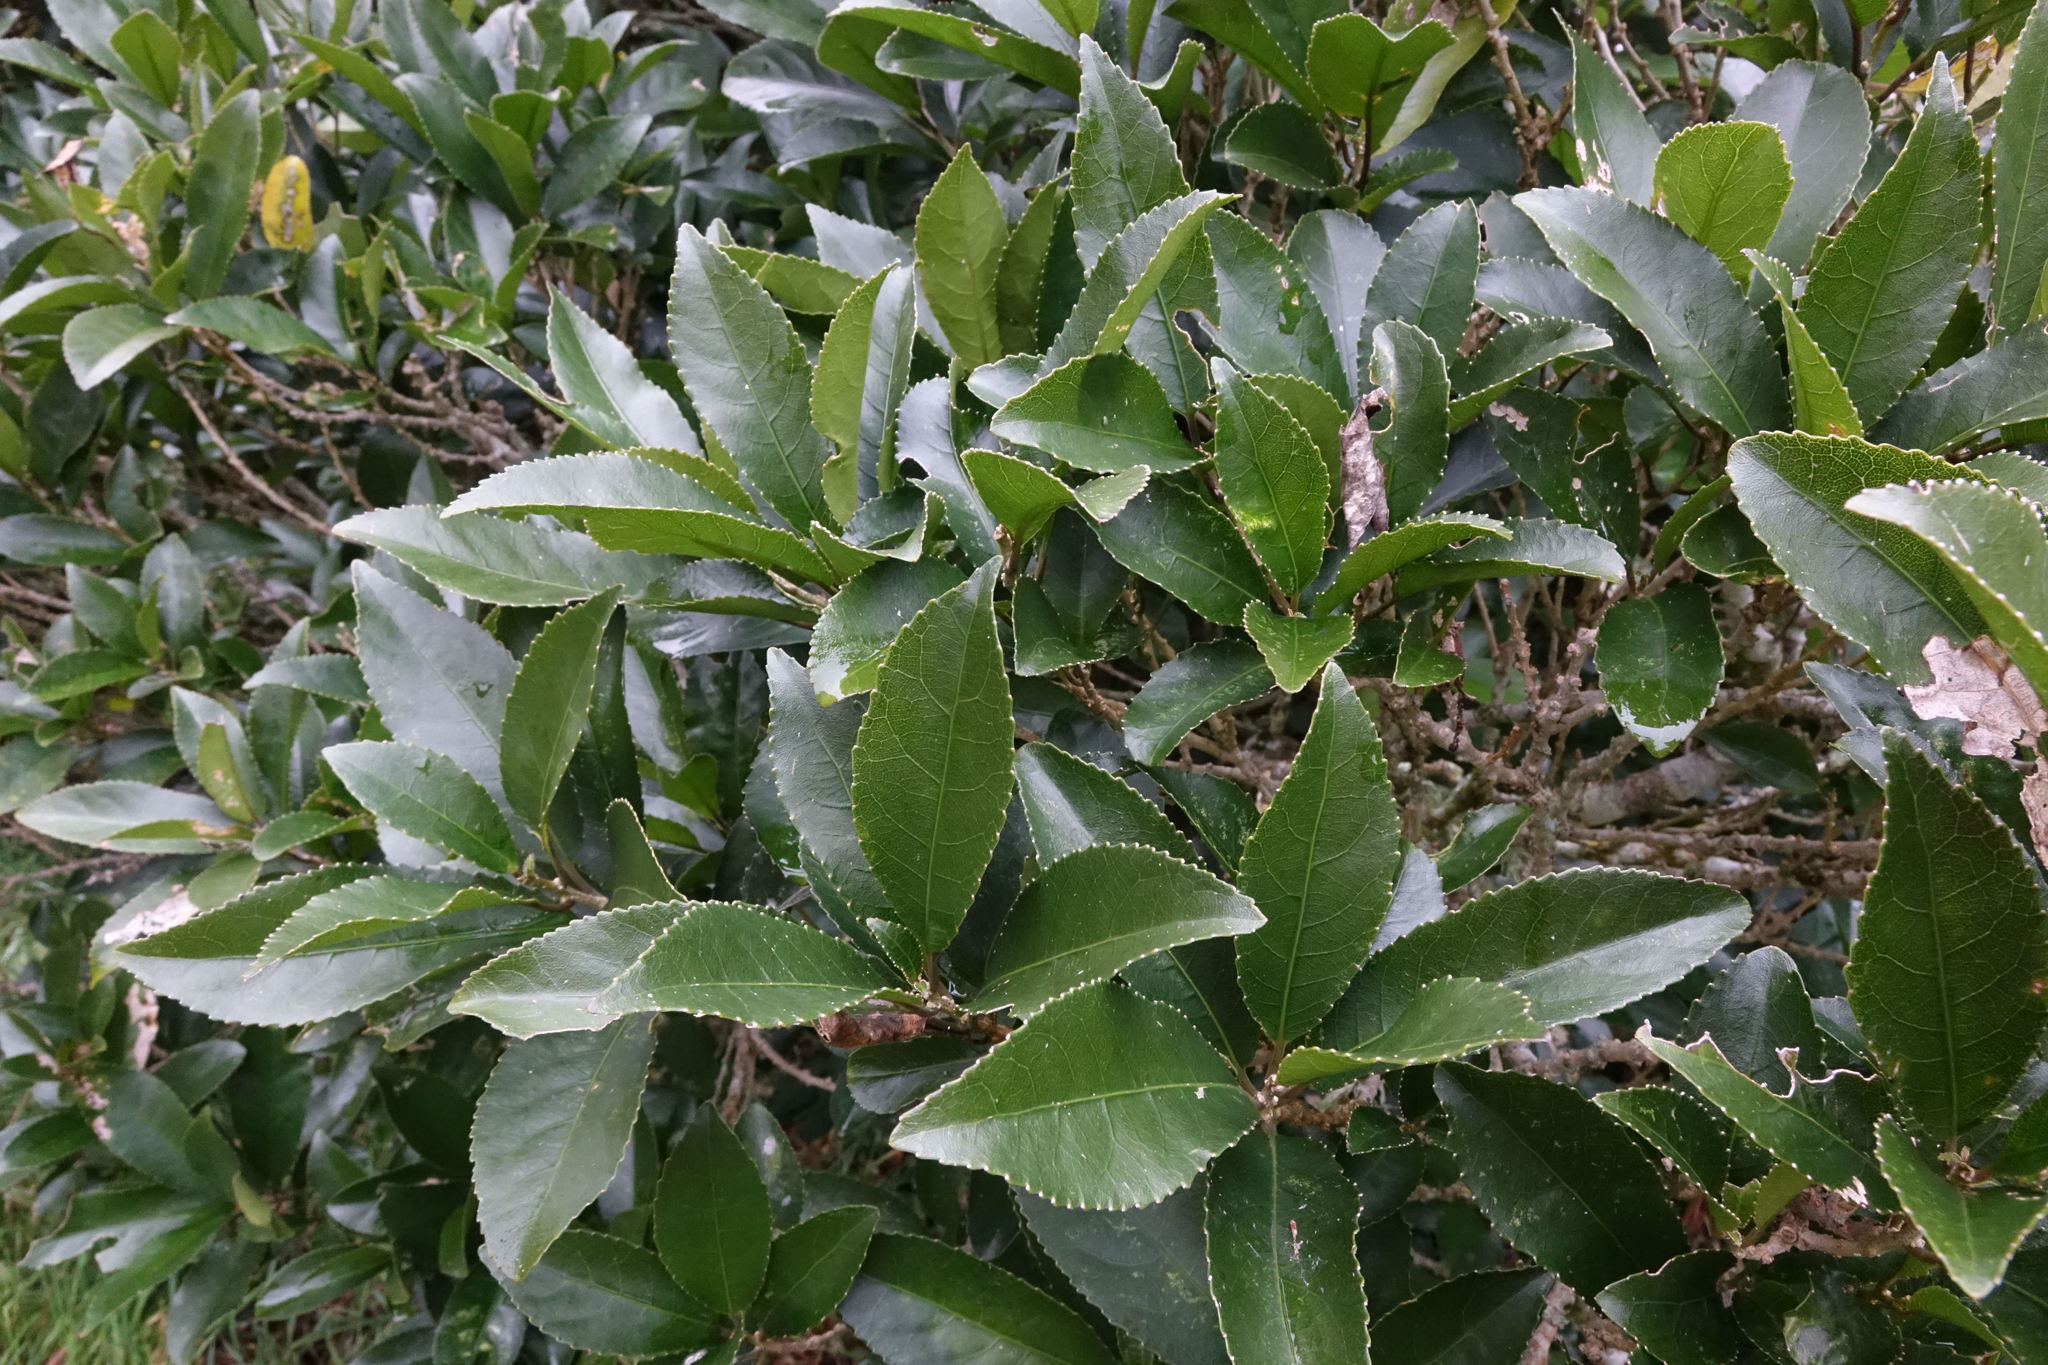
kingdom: Plantae
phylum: Tracheophyta
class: Magnoliopsida
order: Malpighiales
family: Violaceae
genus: Melicytus
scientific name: Melicytus ramiflorus
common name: Mahoe
